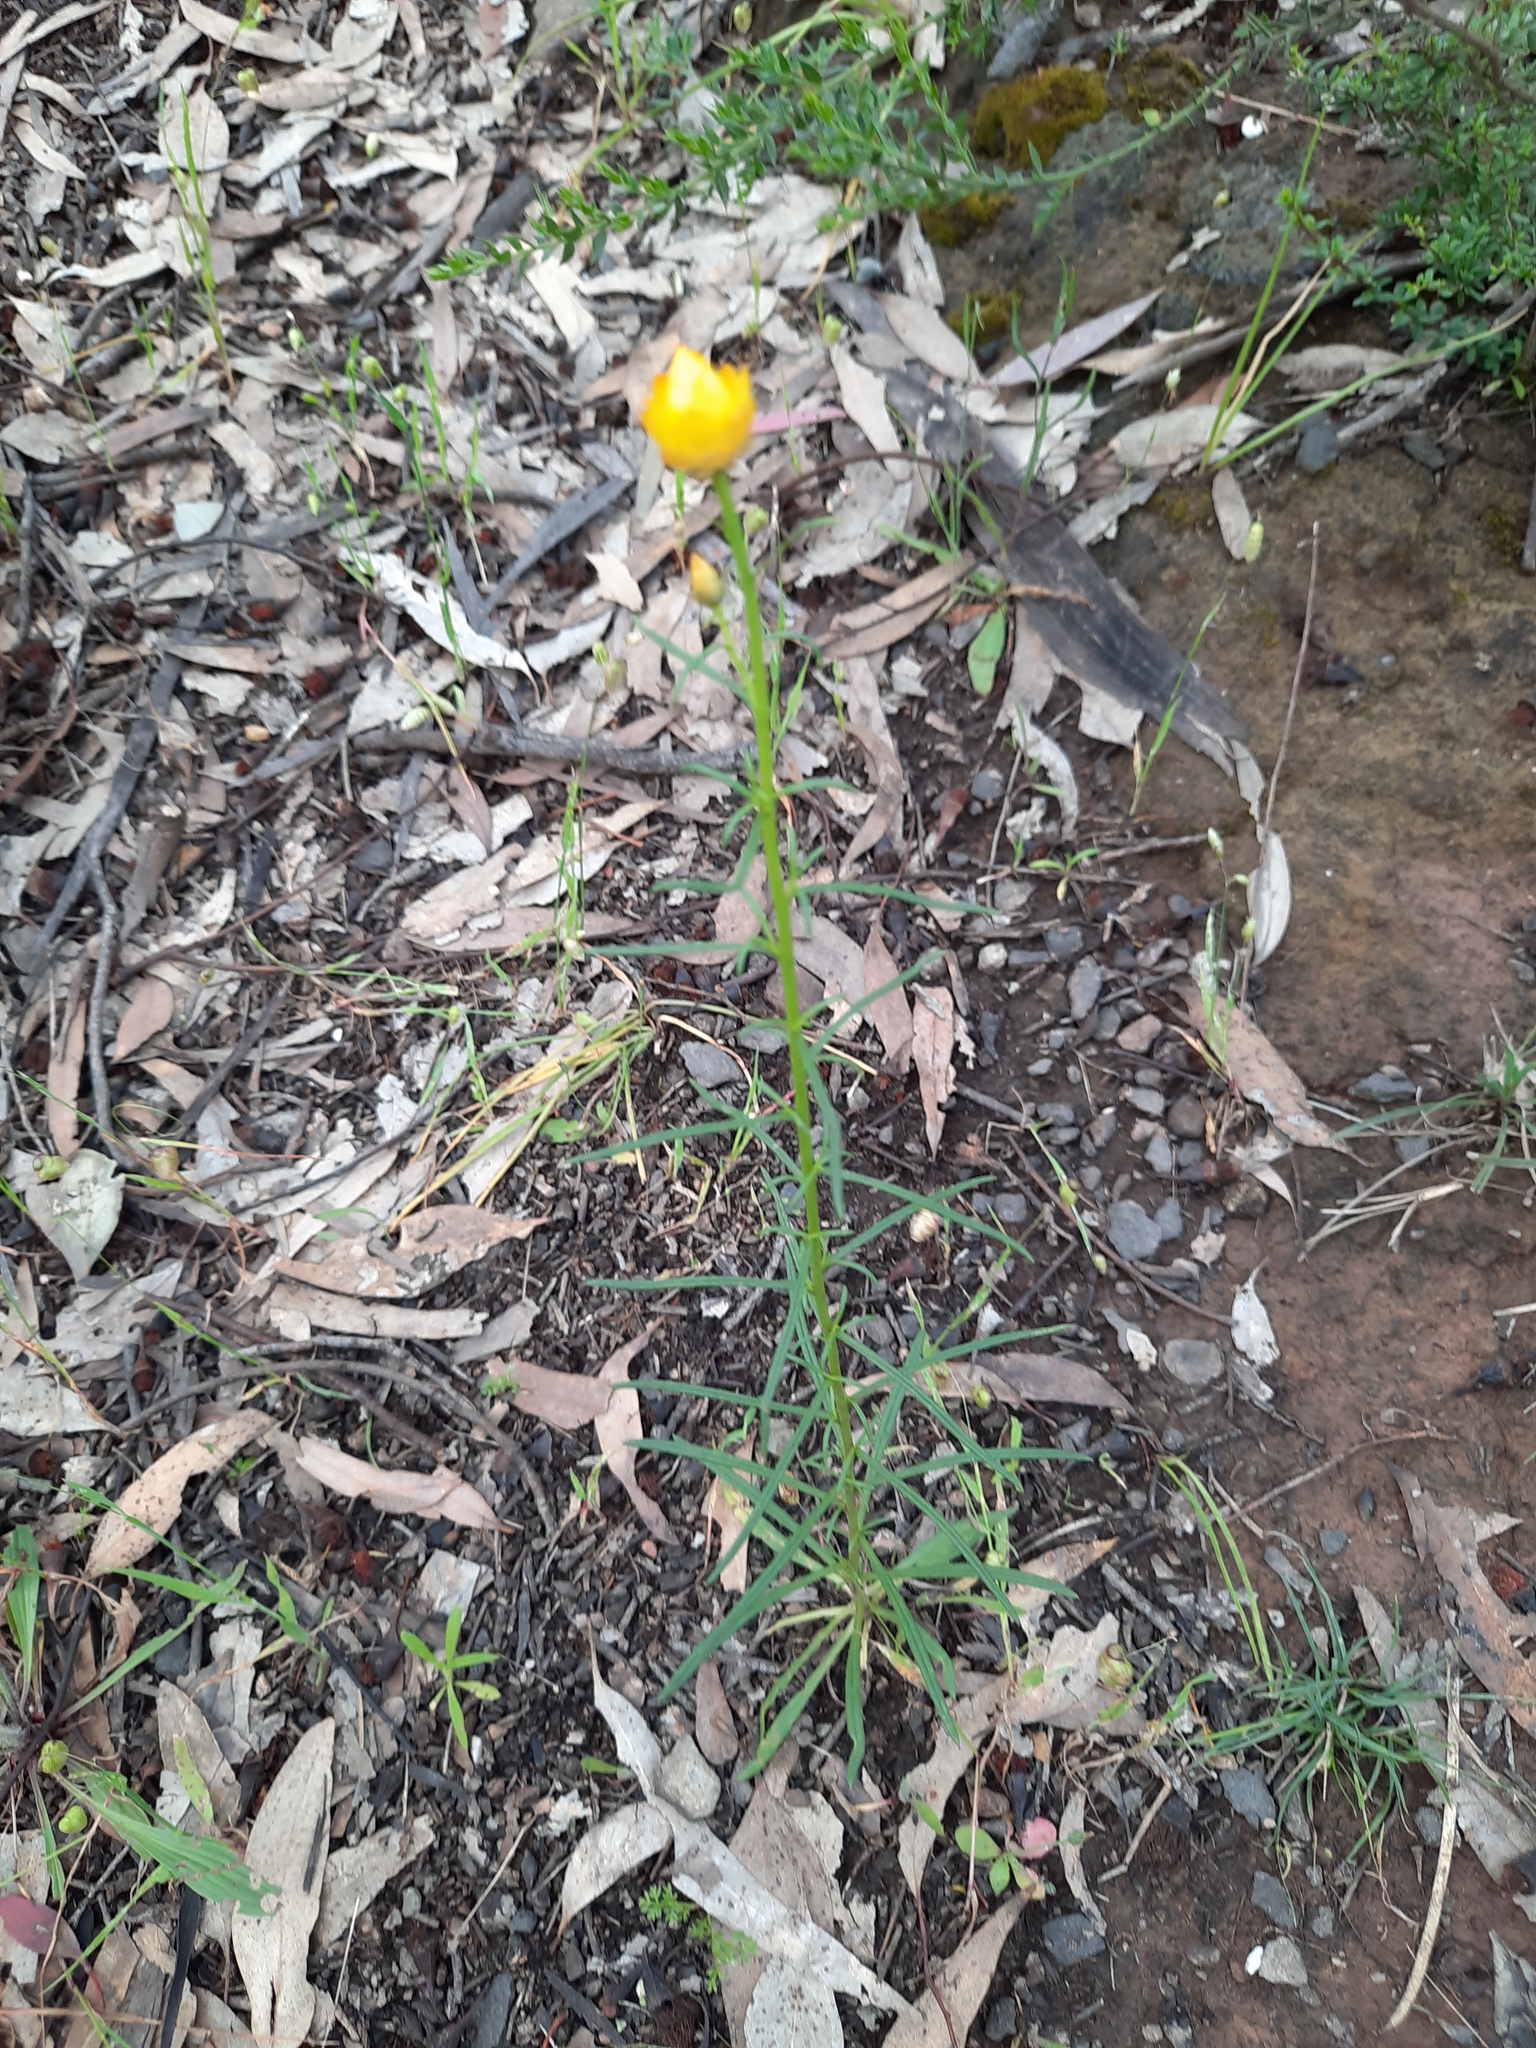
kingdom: Plantae
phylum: Tracheophyta
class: Magnoliopsida
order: Asterales
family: Asteraceae
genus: Xerochrysum
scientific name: Xerochrysum viscosum
